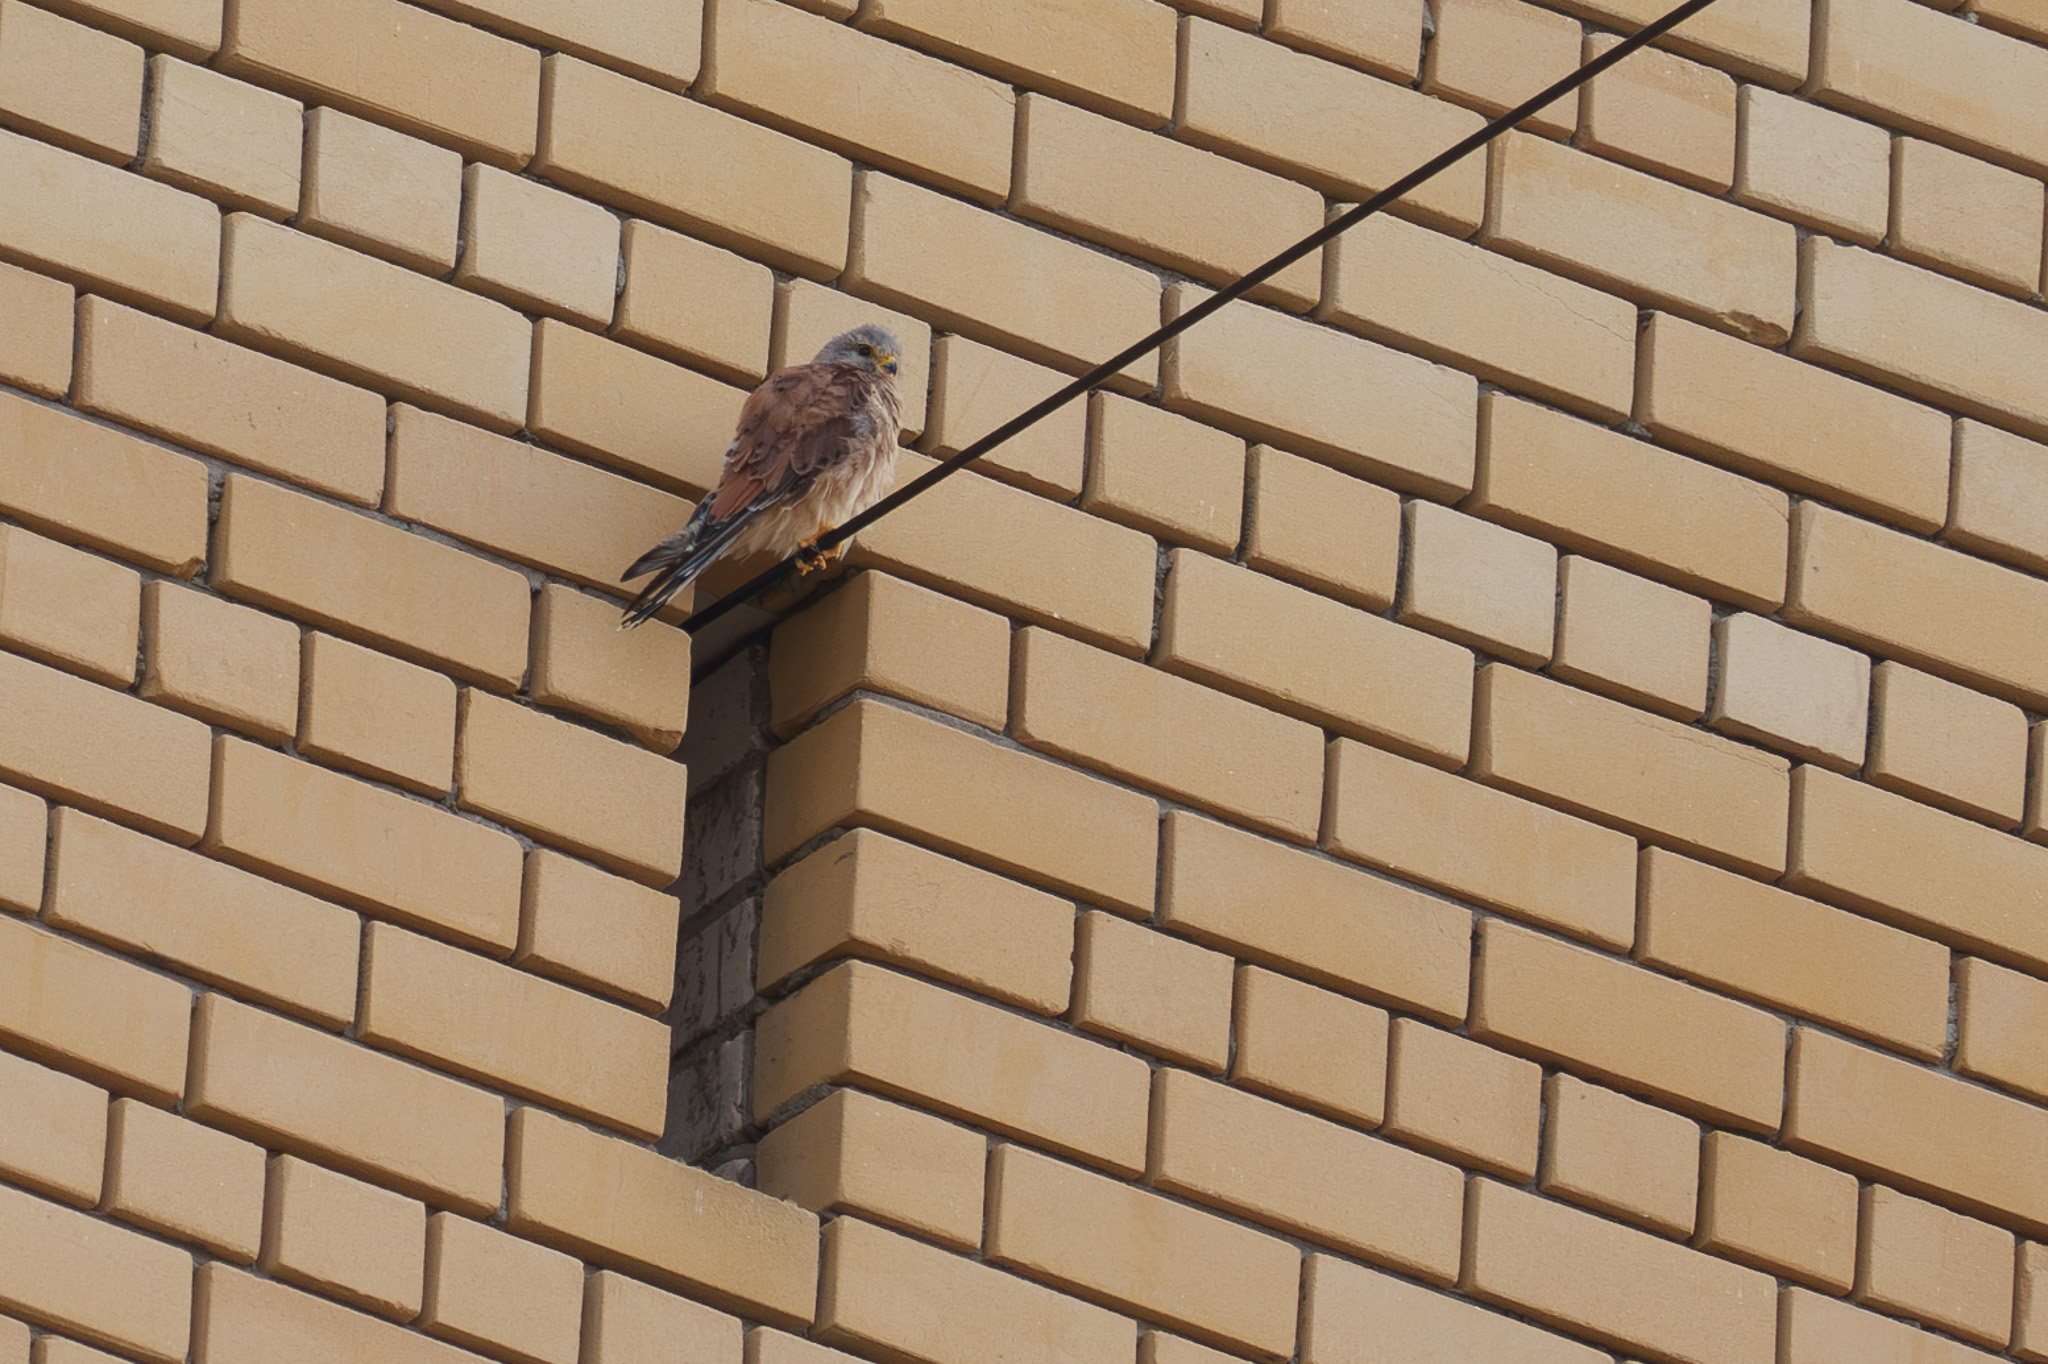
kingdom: Animalia
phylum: Chordata
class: Aves
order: Falconiformes
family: Falconidae
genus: Falco
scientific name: Falco tinnunculus
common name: Common kestrel
